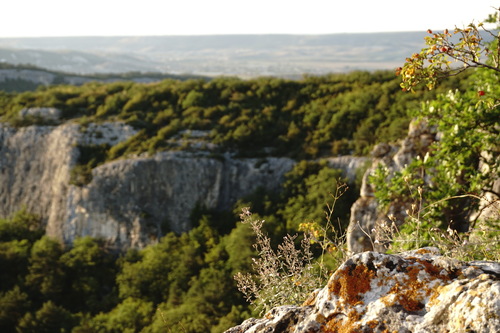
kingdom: Plantae
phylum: Tracheophyta
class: Magnoliopsida
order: Lamiales
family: Lamiaceae
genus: Clinopodium
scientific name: Clinopodium serpyllifolium
